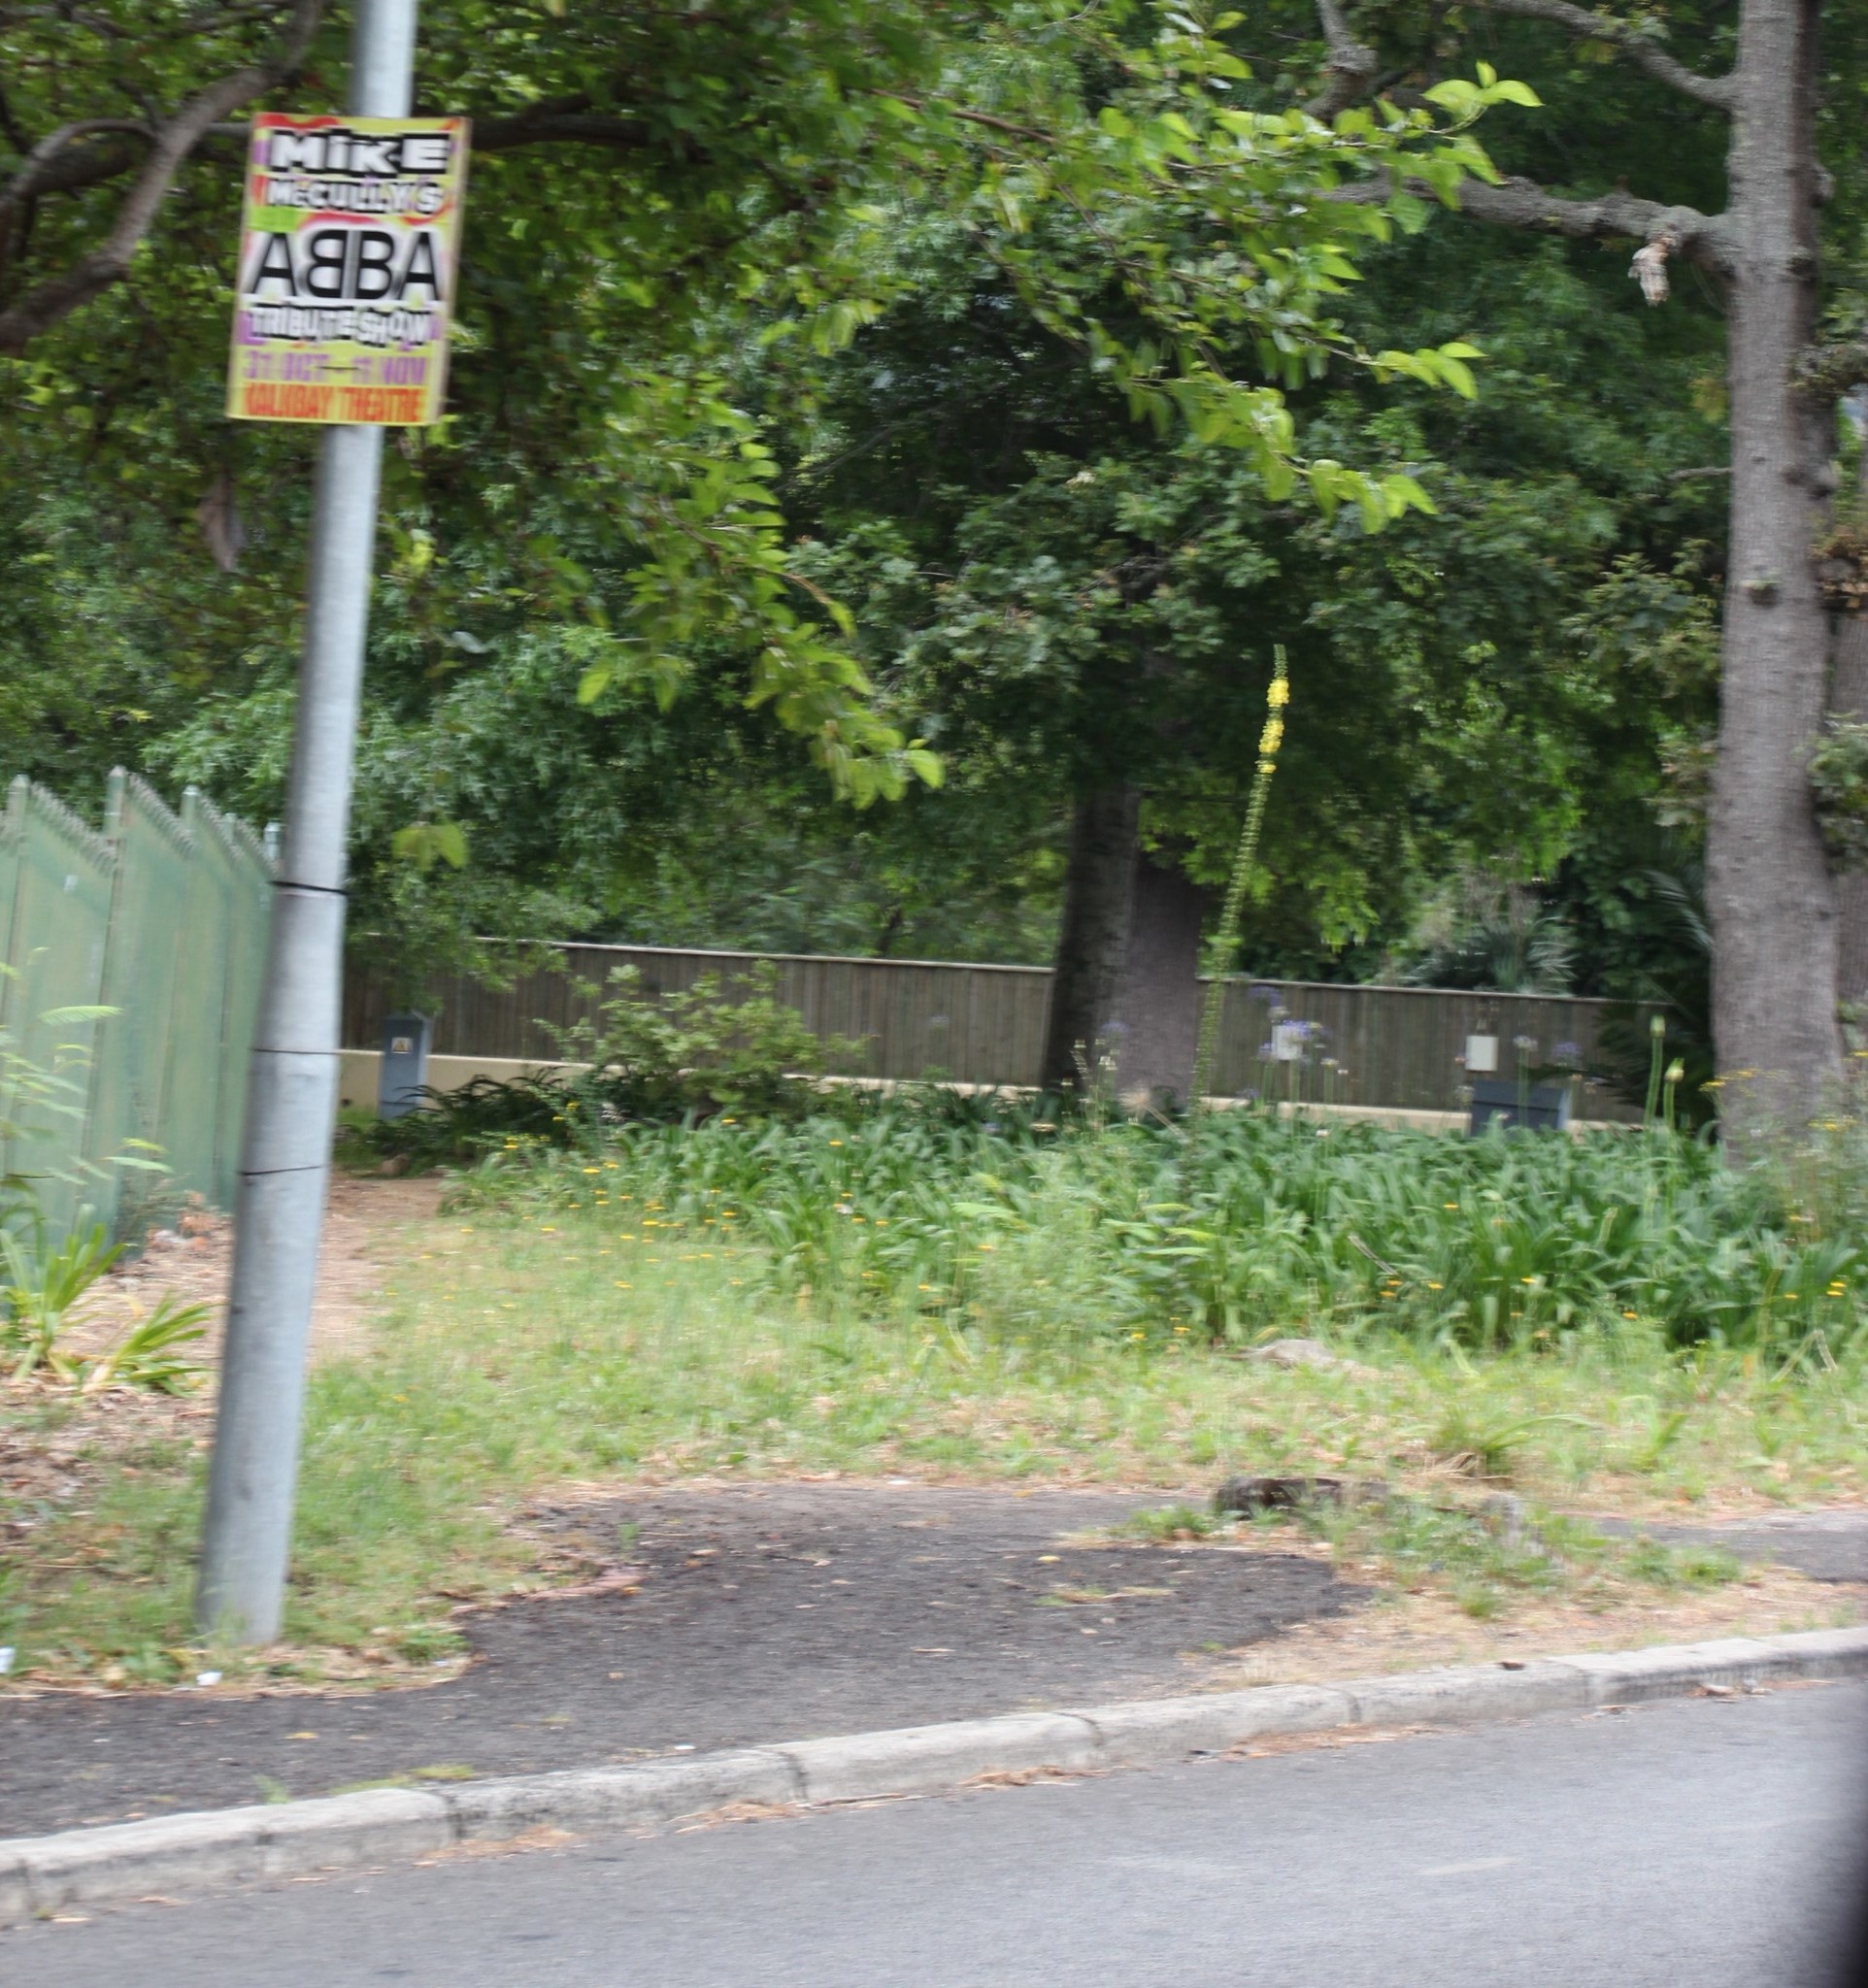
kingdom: Plantae
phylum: Tracheophyta
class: Magnoliopsida
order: Lamiales
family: Scrophulariaceae
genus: Verbascum
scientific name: Verbascum virgatum
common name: Twiggy mullein
